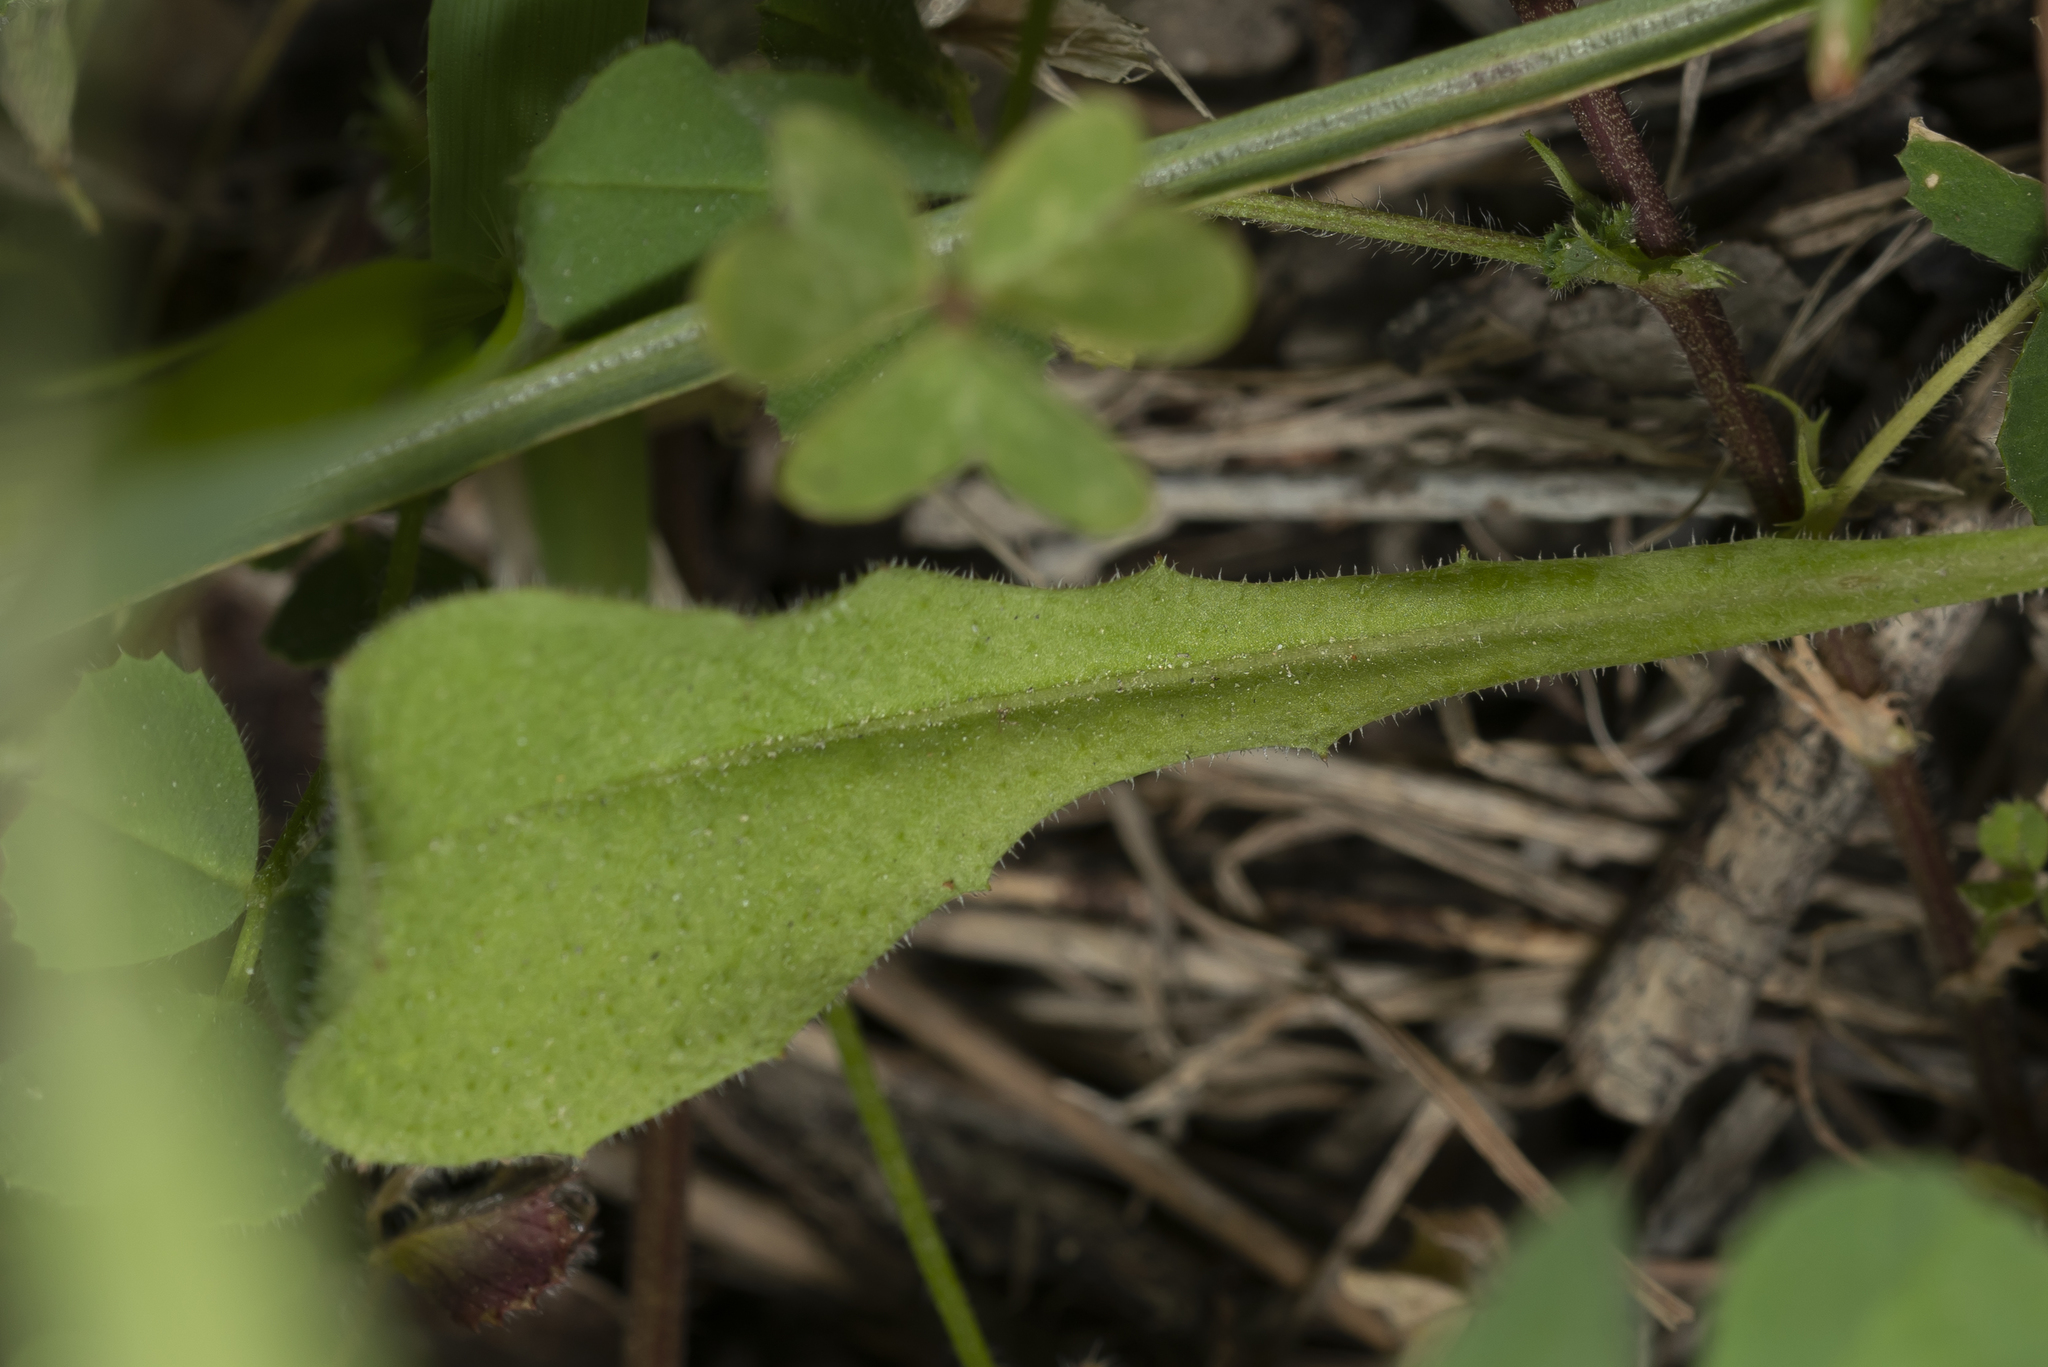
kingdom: Plantae
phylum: Tracheophyta
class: Magnoliopsida
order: Asterales
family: Asteraceae
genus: Crepis
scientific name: Crepis sancta
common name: Hawk's-beard
